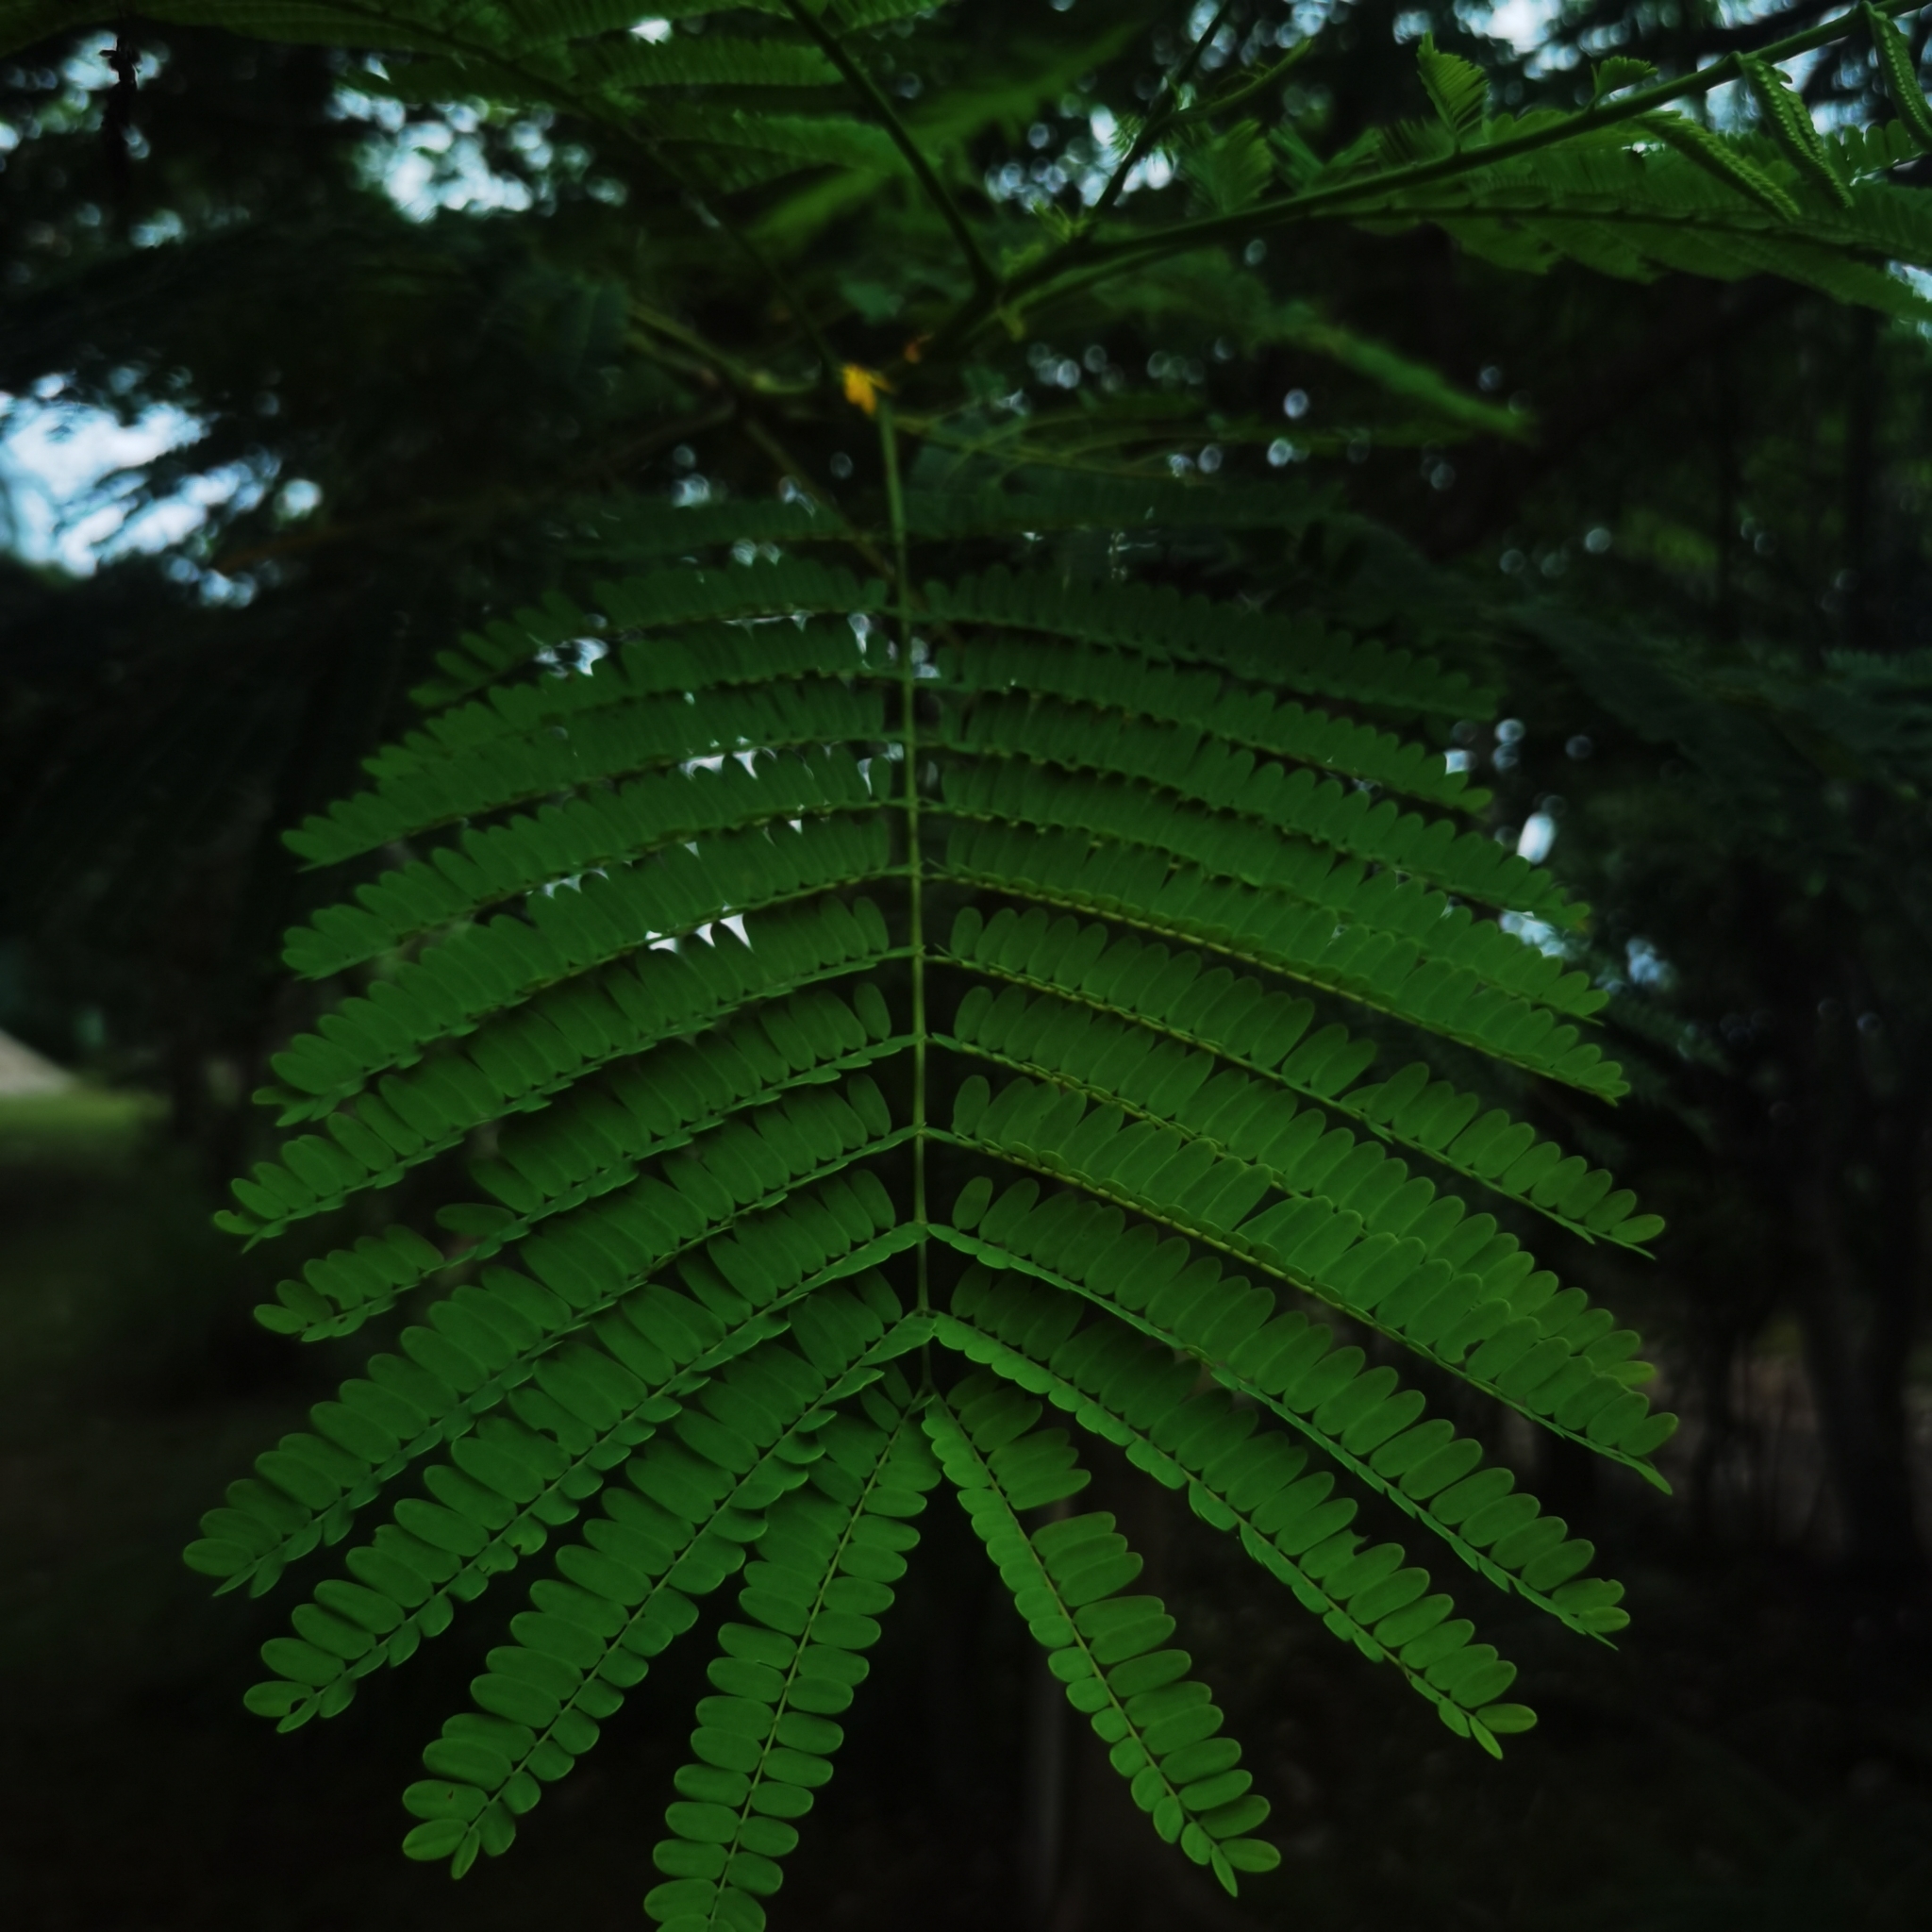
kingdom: Plantae
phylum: Tracheophyta
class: Magnoliopsida
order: Fabales
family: Fabaceae
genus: Delonix
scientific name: Delonix regia
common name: Royal poinciana
